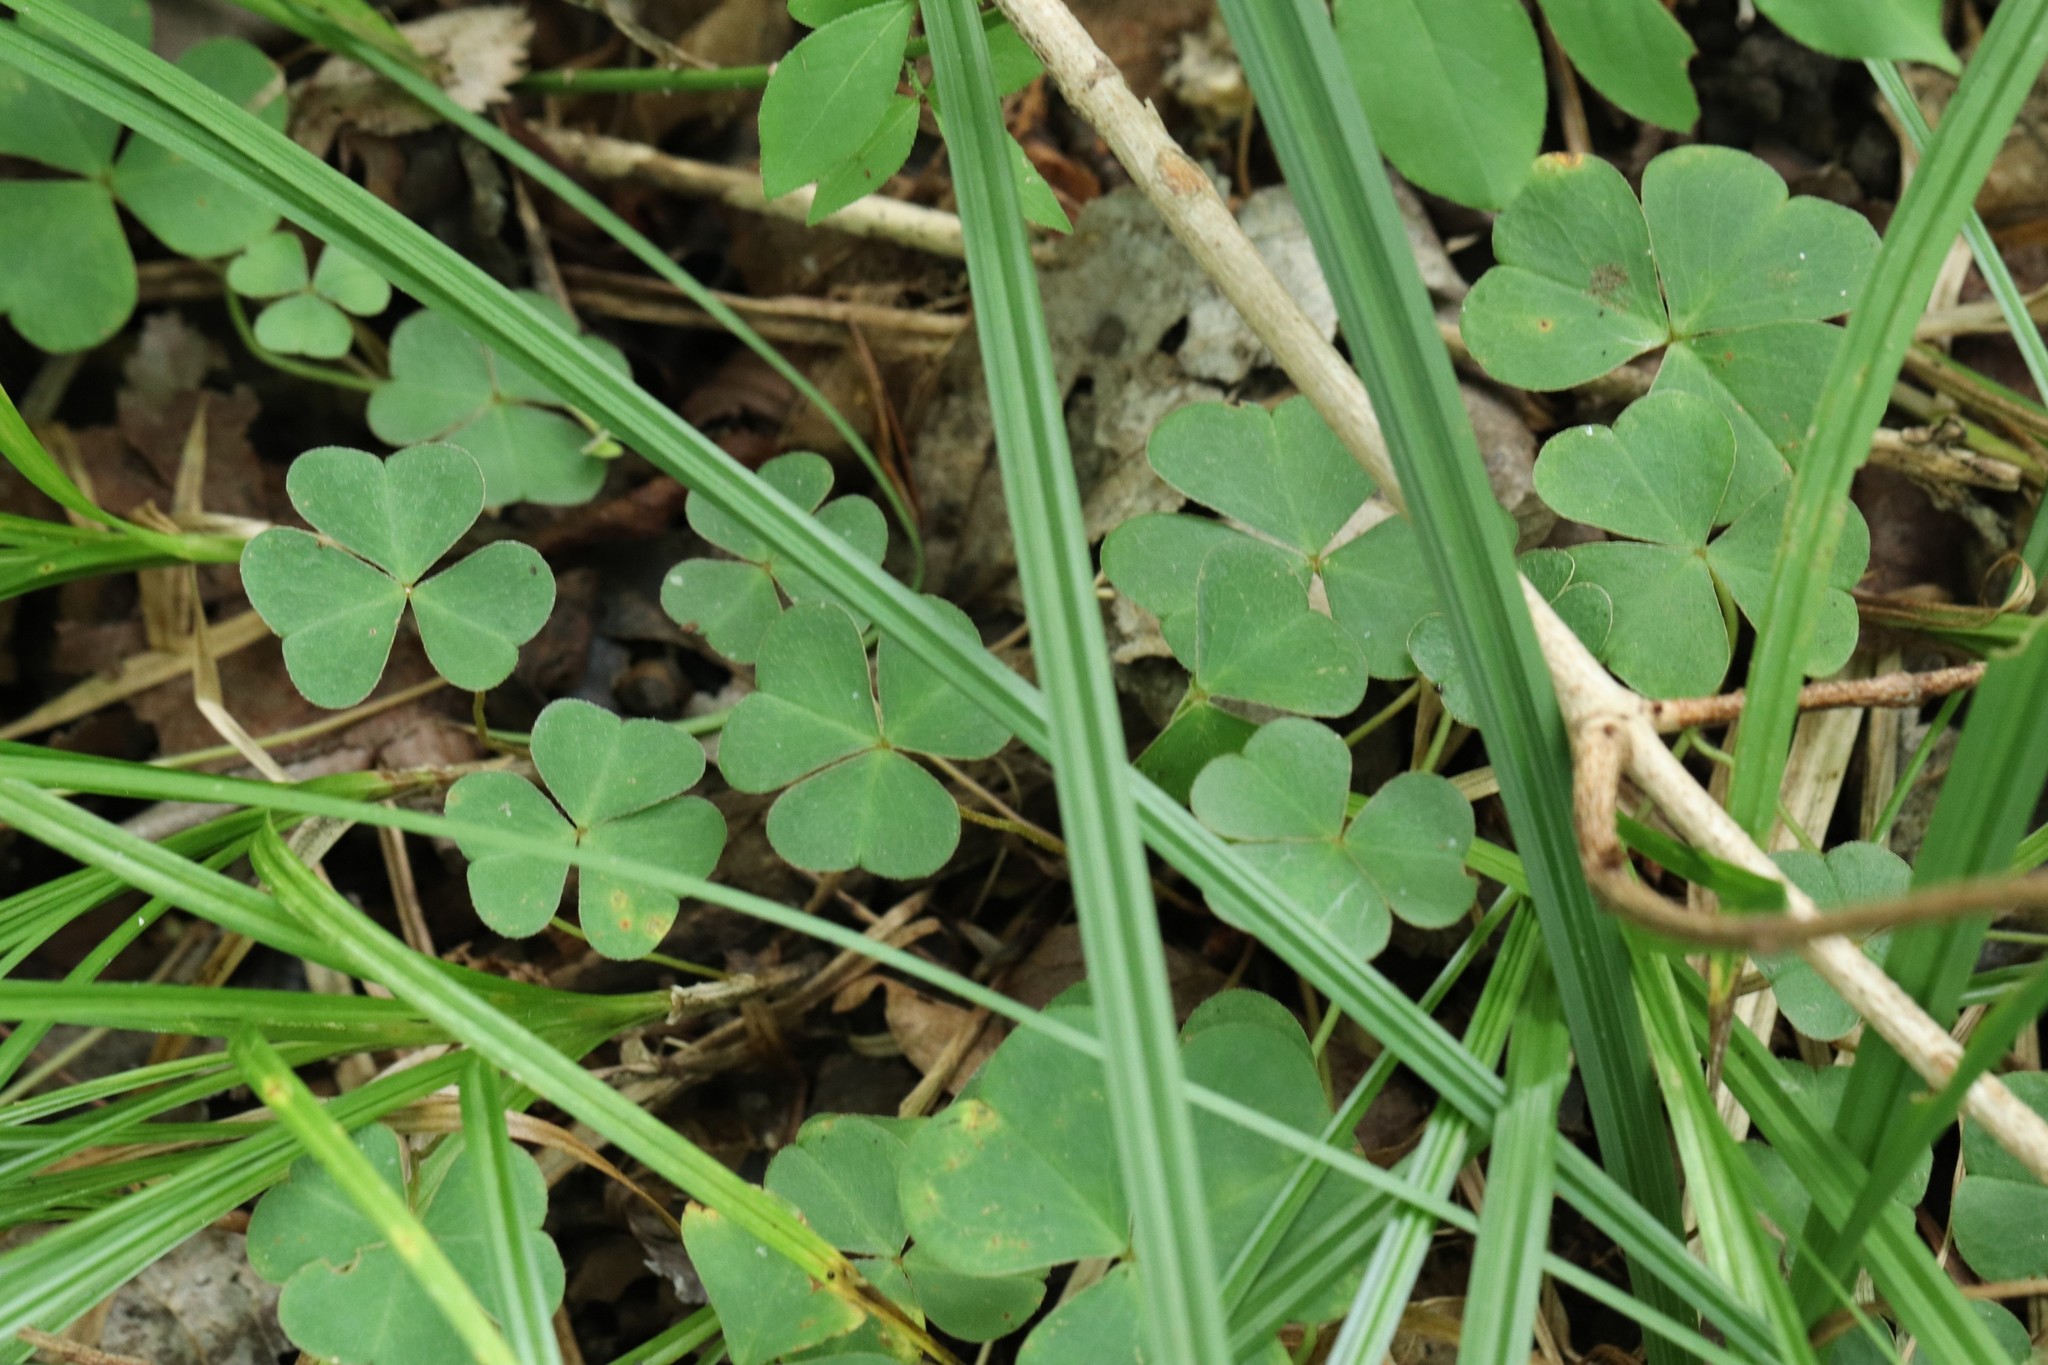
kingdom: Plantae
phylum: Tracheophyta
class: Magnoliopsida
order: Oxalidales
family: Oxalidaceae
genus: Oxalis
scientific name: Oxalis acetosella
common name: Wood-sorrel
